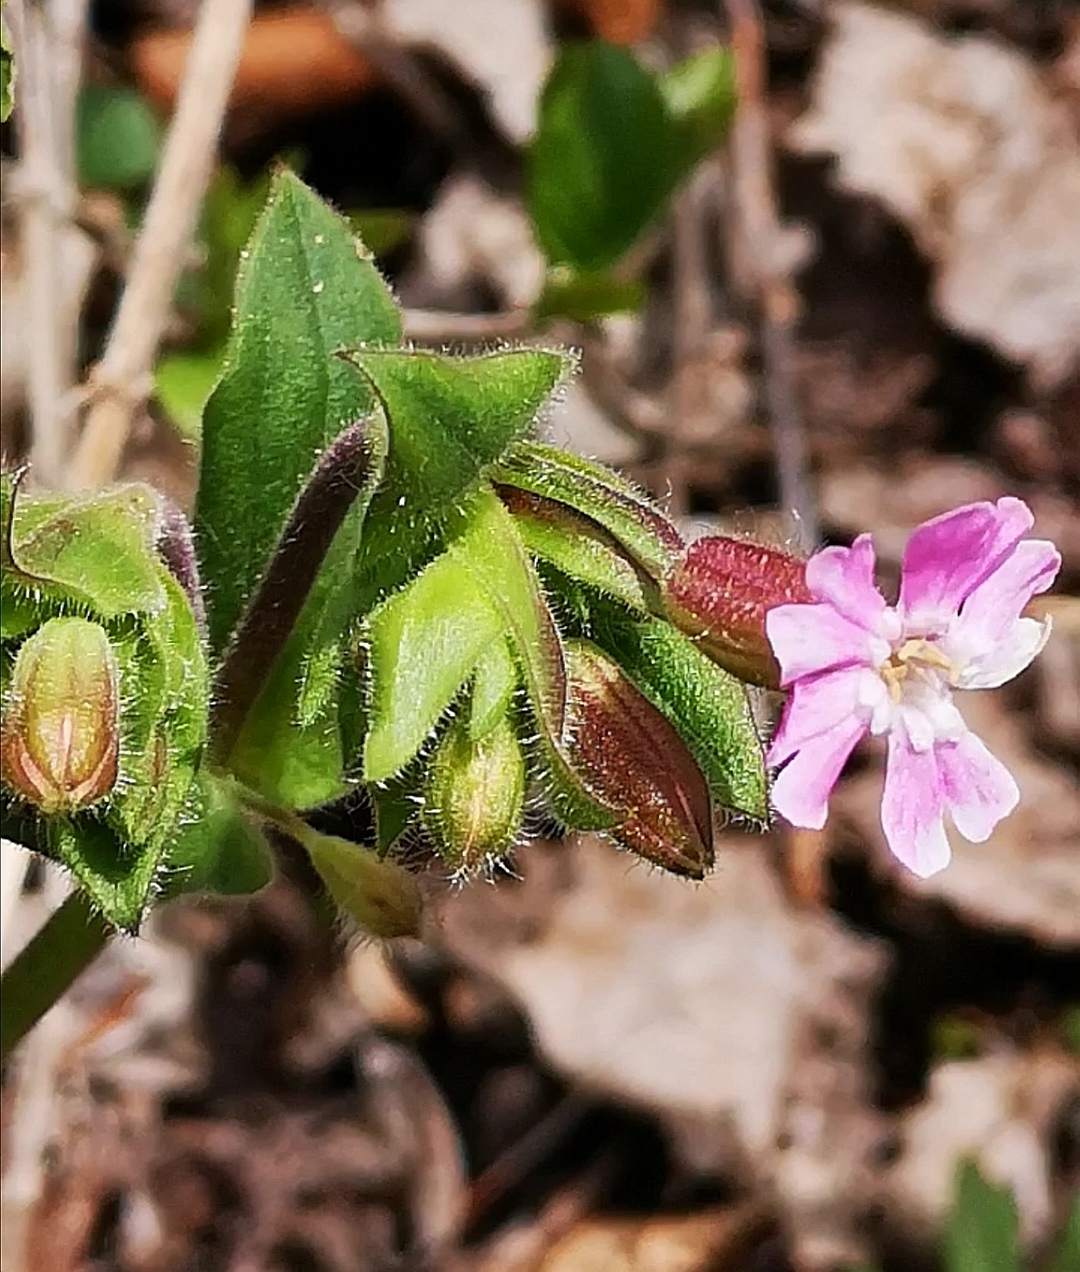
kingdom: Plantae
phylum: Tracheophyta
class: Magnoliopsida
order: Caryophyllales
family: Caryophyllaceae
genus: Silene
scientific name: Silene dioica
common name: Red campion
